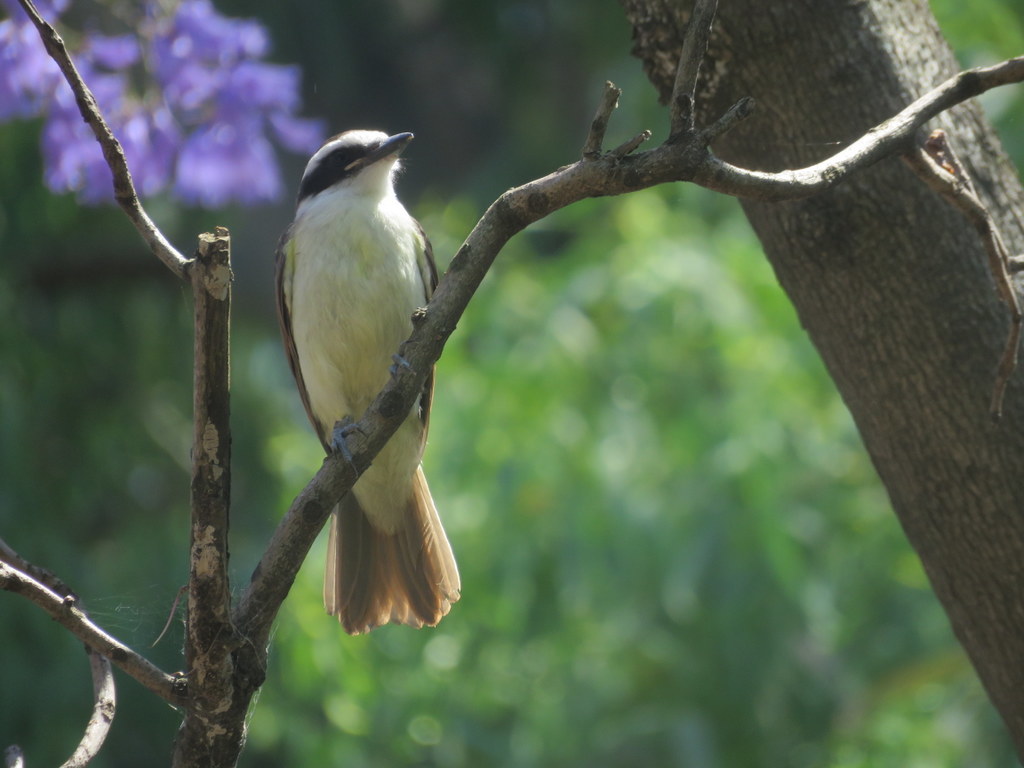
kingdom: Animalia
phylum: Chordata
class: Aves
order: Passeriformes
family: Tyrannidae
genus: Pitangus
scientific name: Pitangus sulphuratus
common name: Great kiskadee
